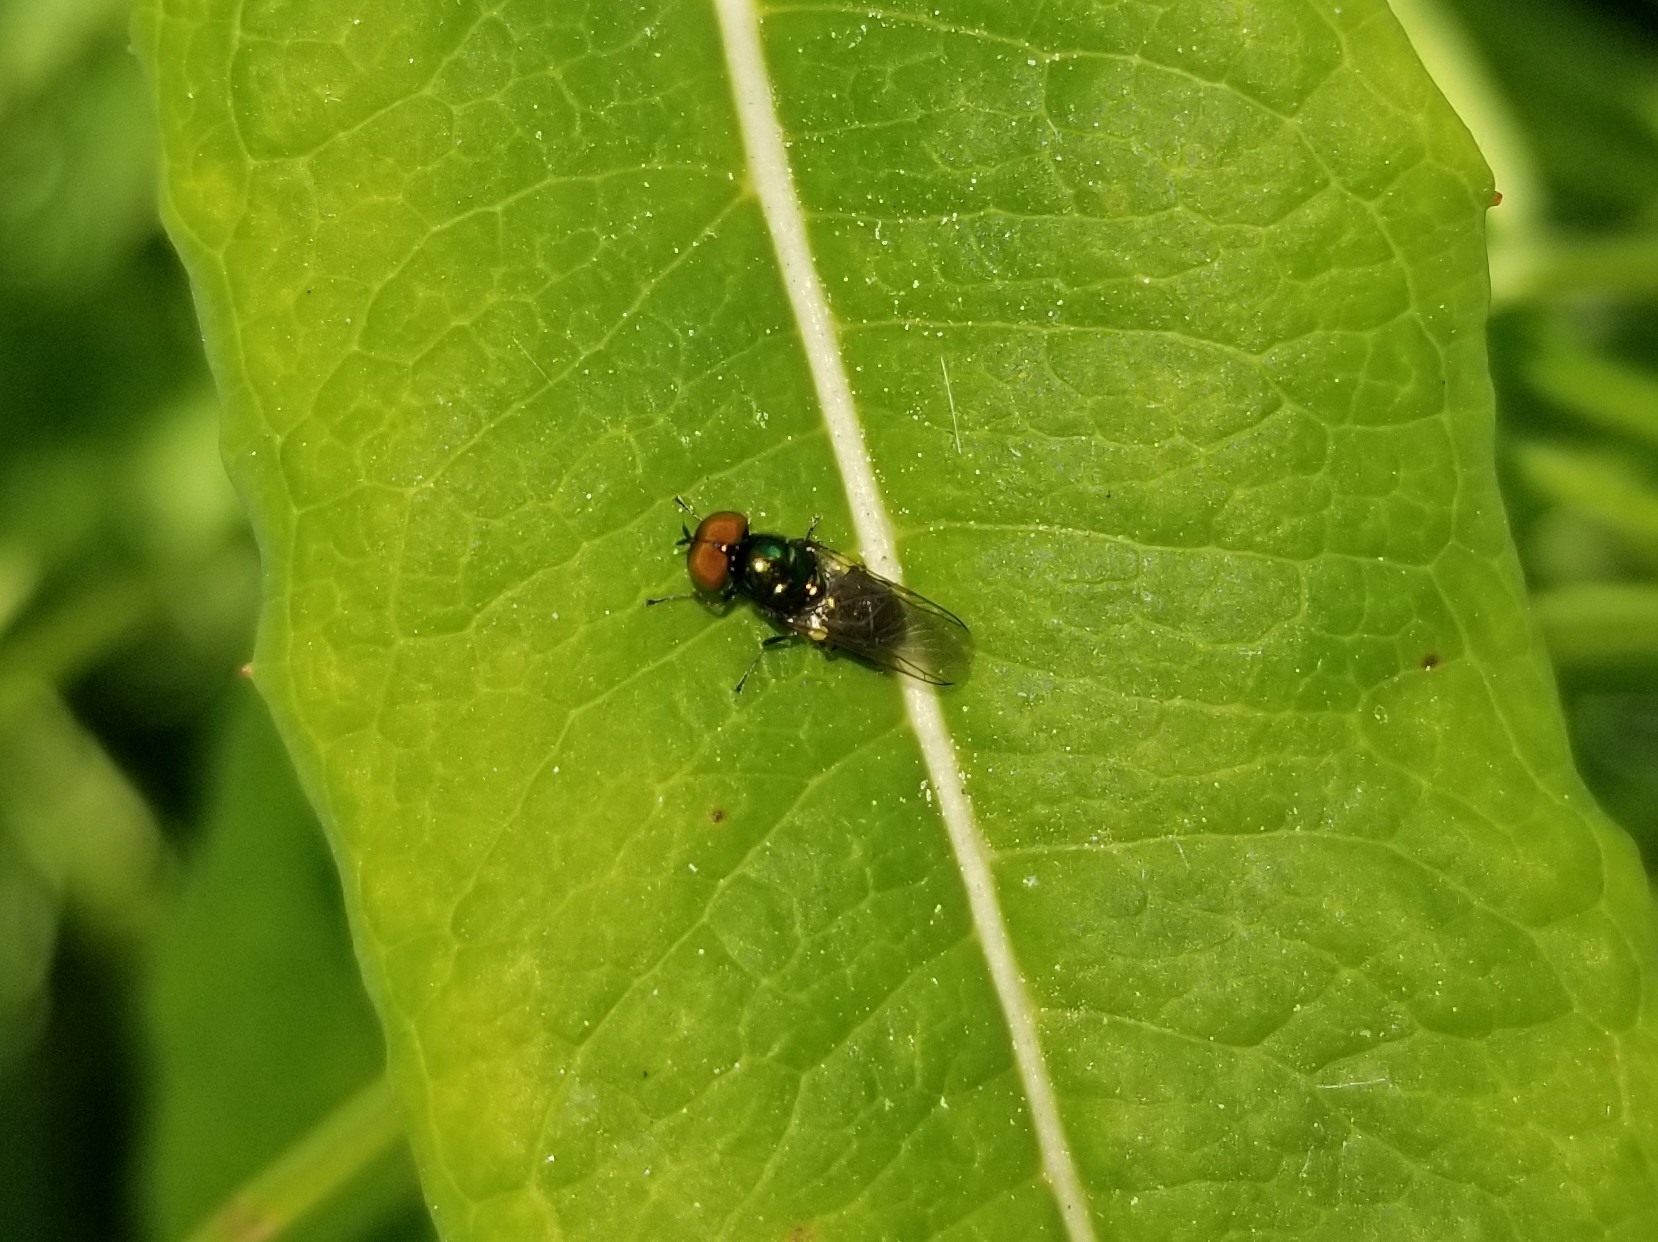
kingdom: Animalia
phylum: Arthropoda
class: Insecta
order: Diptera
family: Stratiomyidae
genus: Microchrysa
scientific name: Microchrysa polita
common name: Black-horned gem
